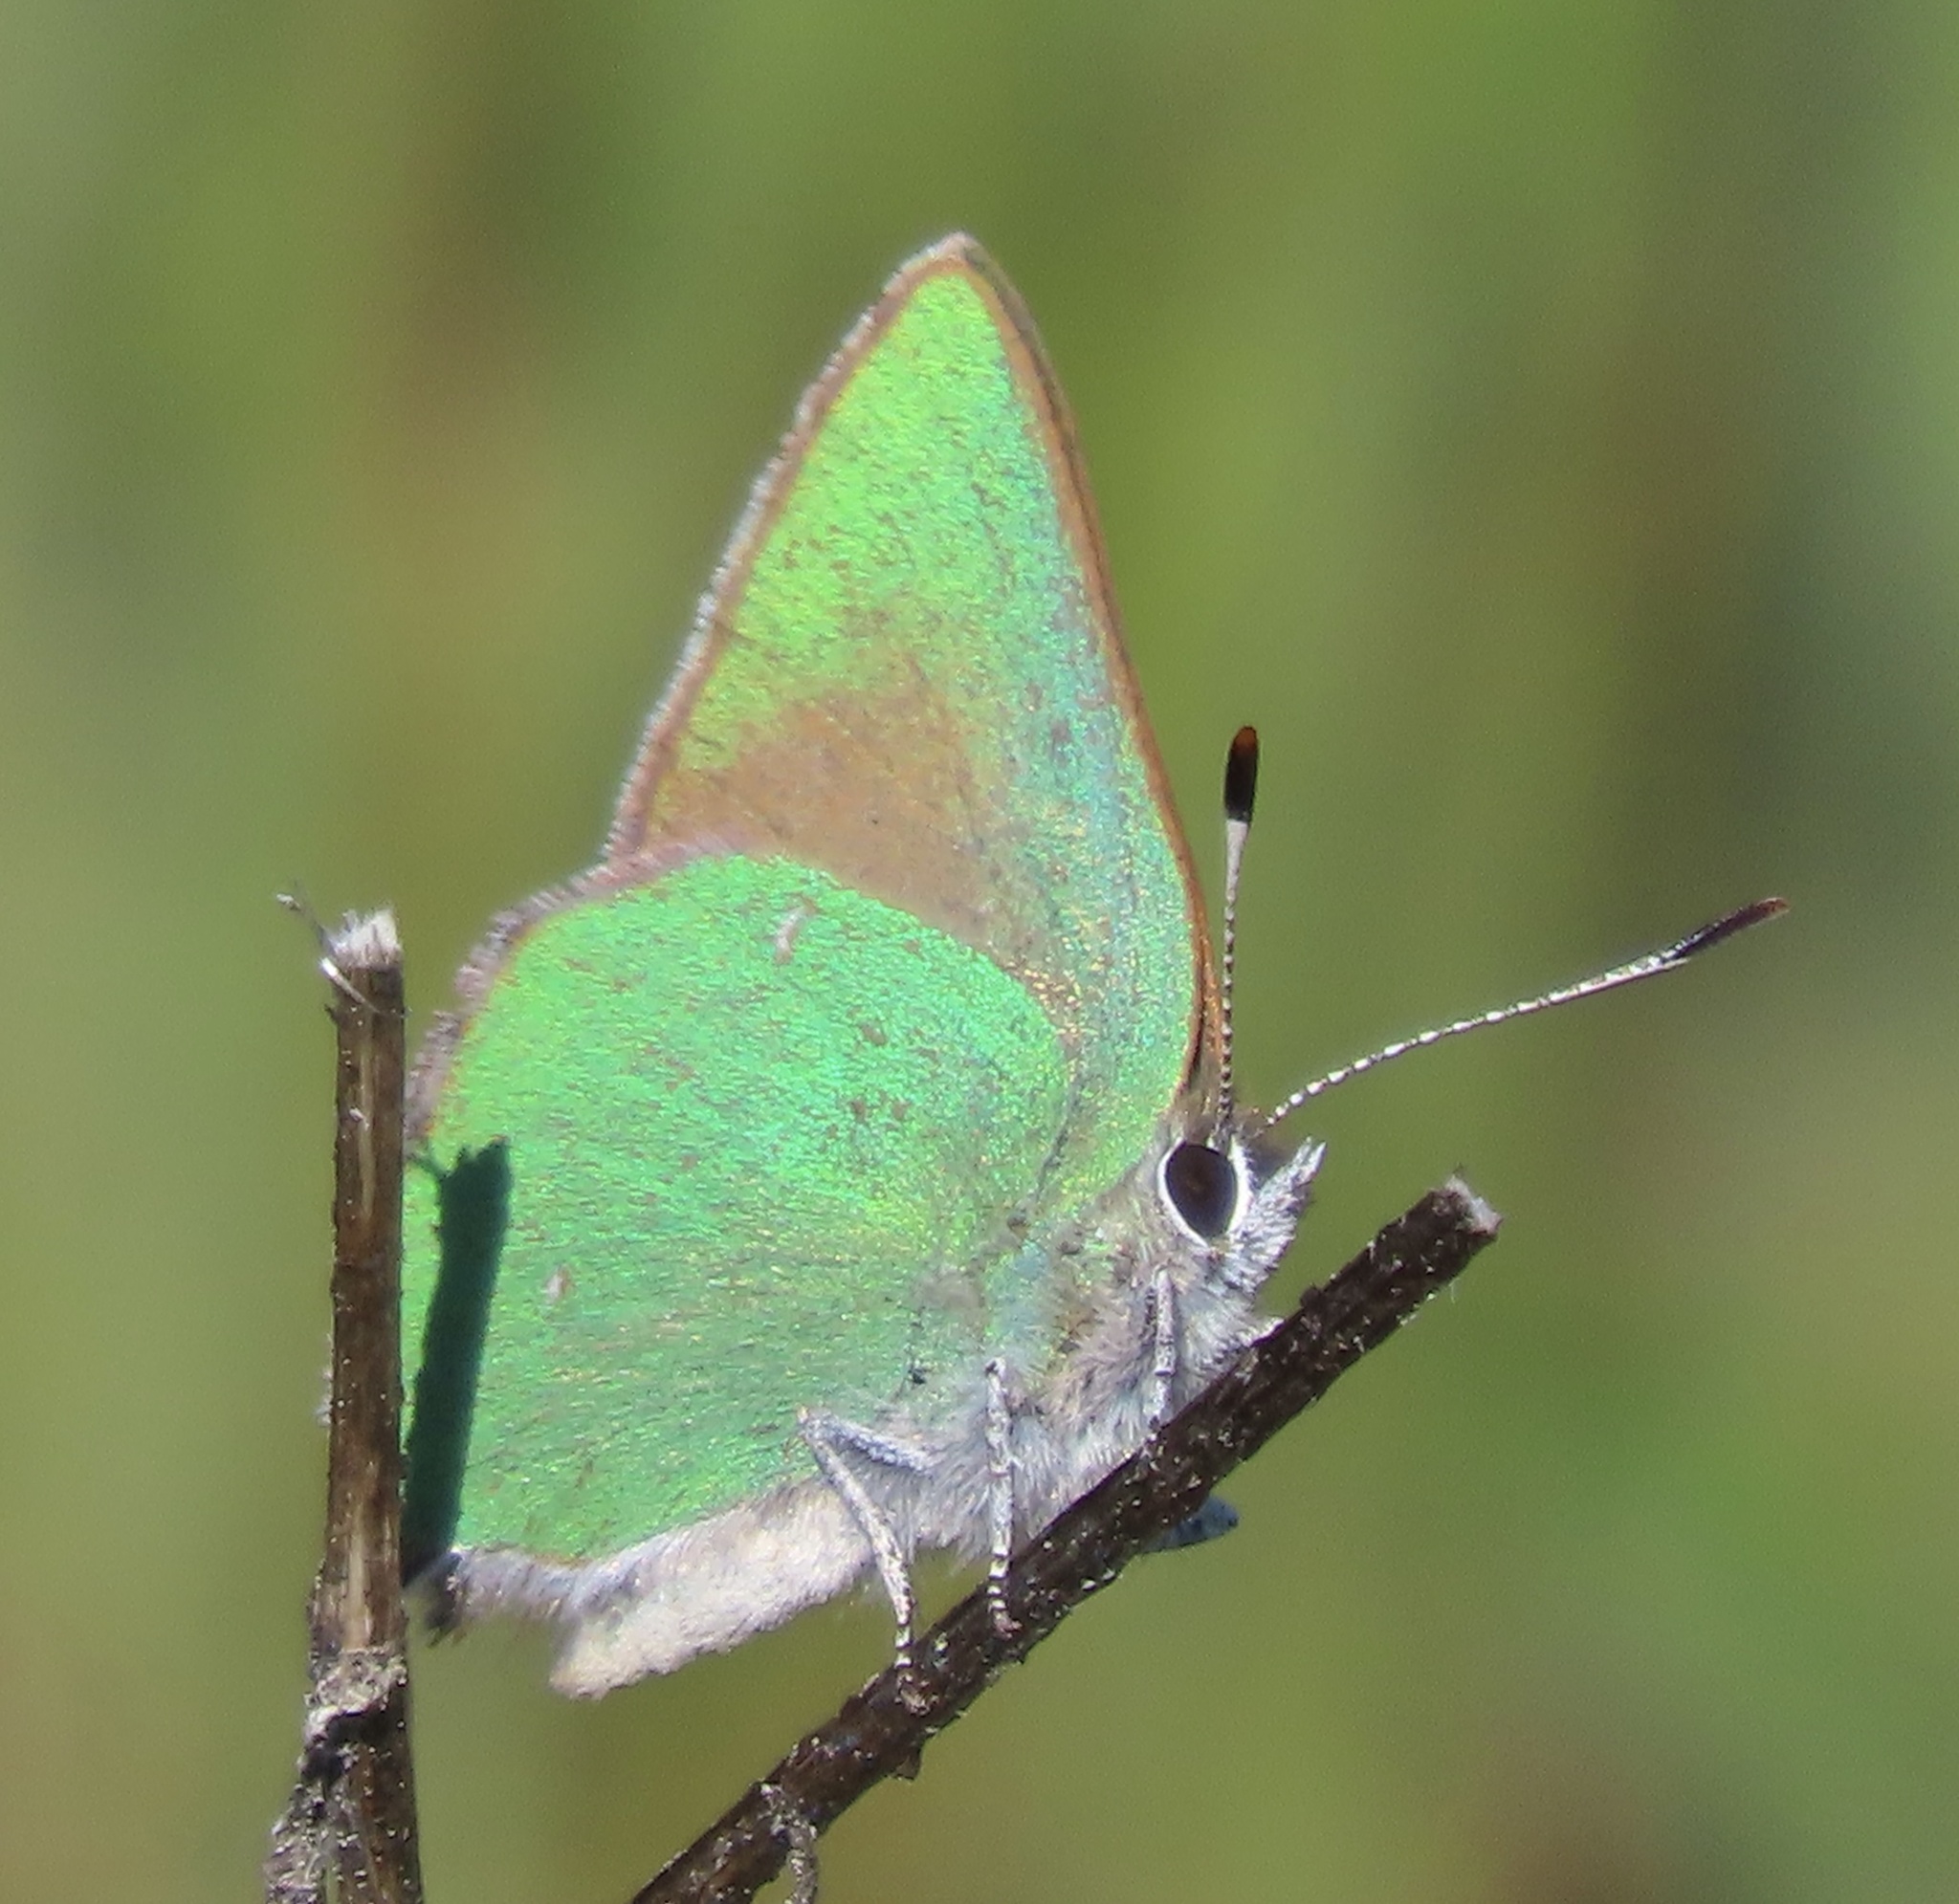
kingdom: Animalia
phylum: Arthropoda
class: Insecta
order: Lepidoptera
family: Lycaenidae
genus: Callophrys
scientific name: Callophrys dumetorum
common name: Bramble hairstreak
